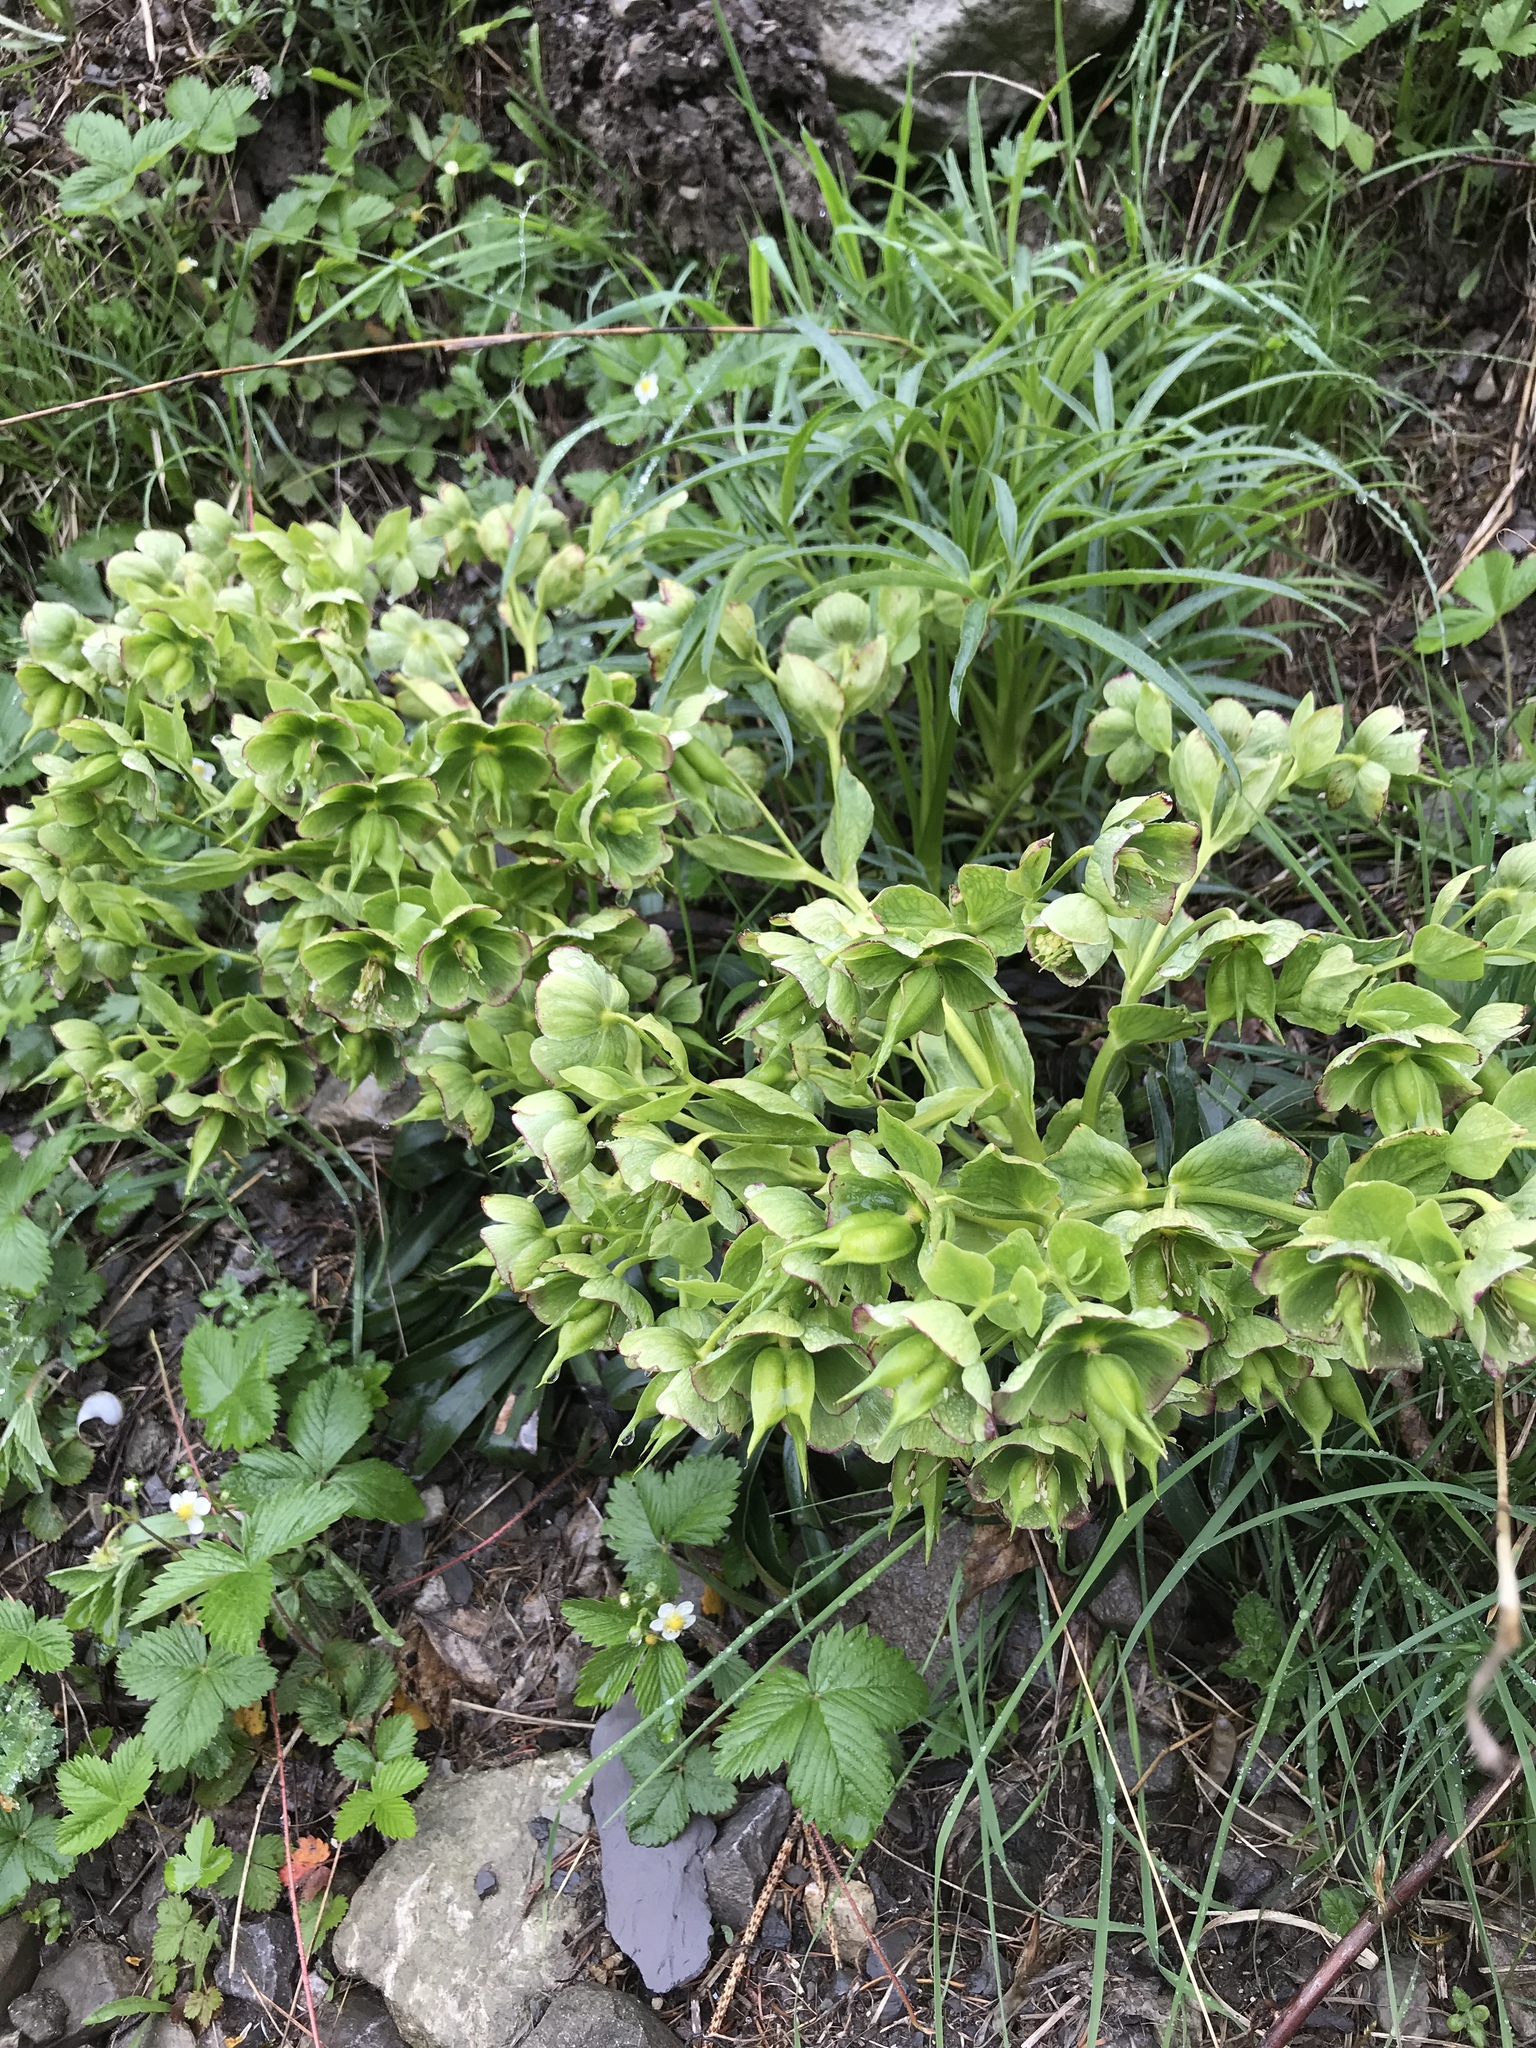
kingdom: Plantae
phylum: Tracheophyta
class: Magnoliopsida
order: Ranunculales
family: Ranunculaceae
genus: Helleborus
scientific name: Helleborus foetidus
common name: Stinking hellebore
